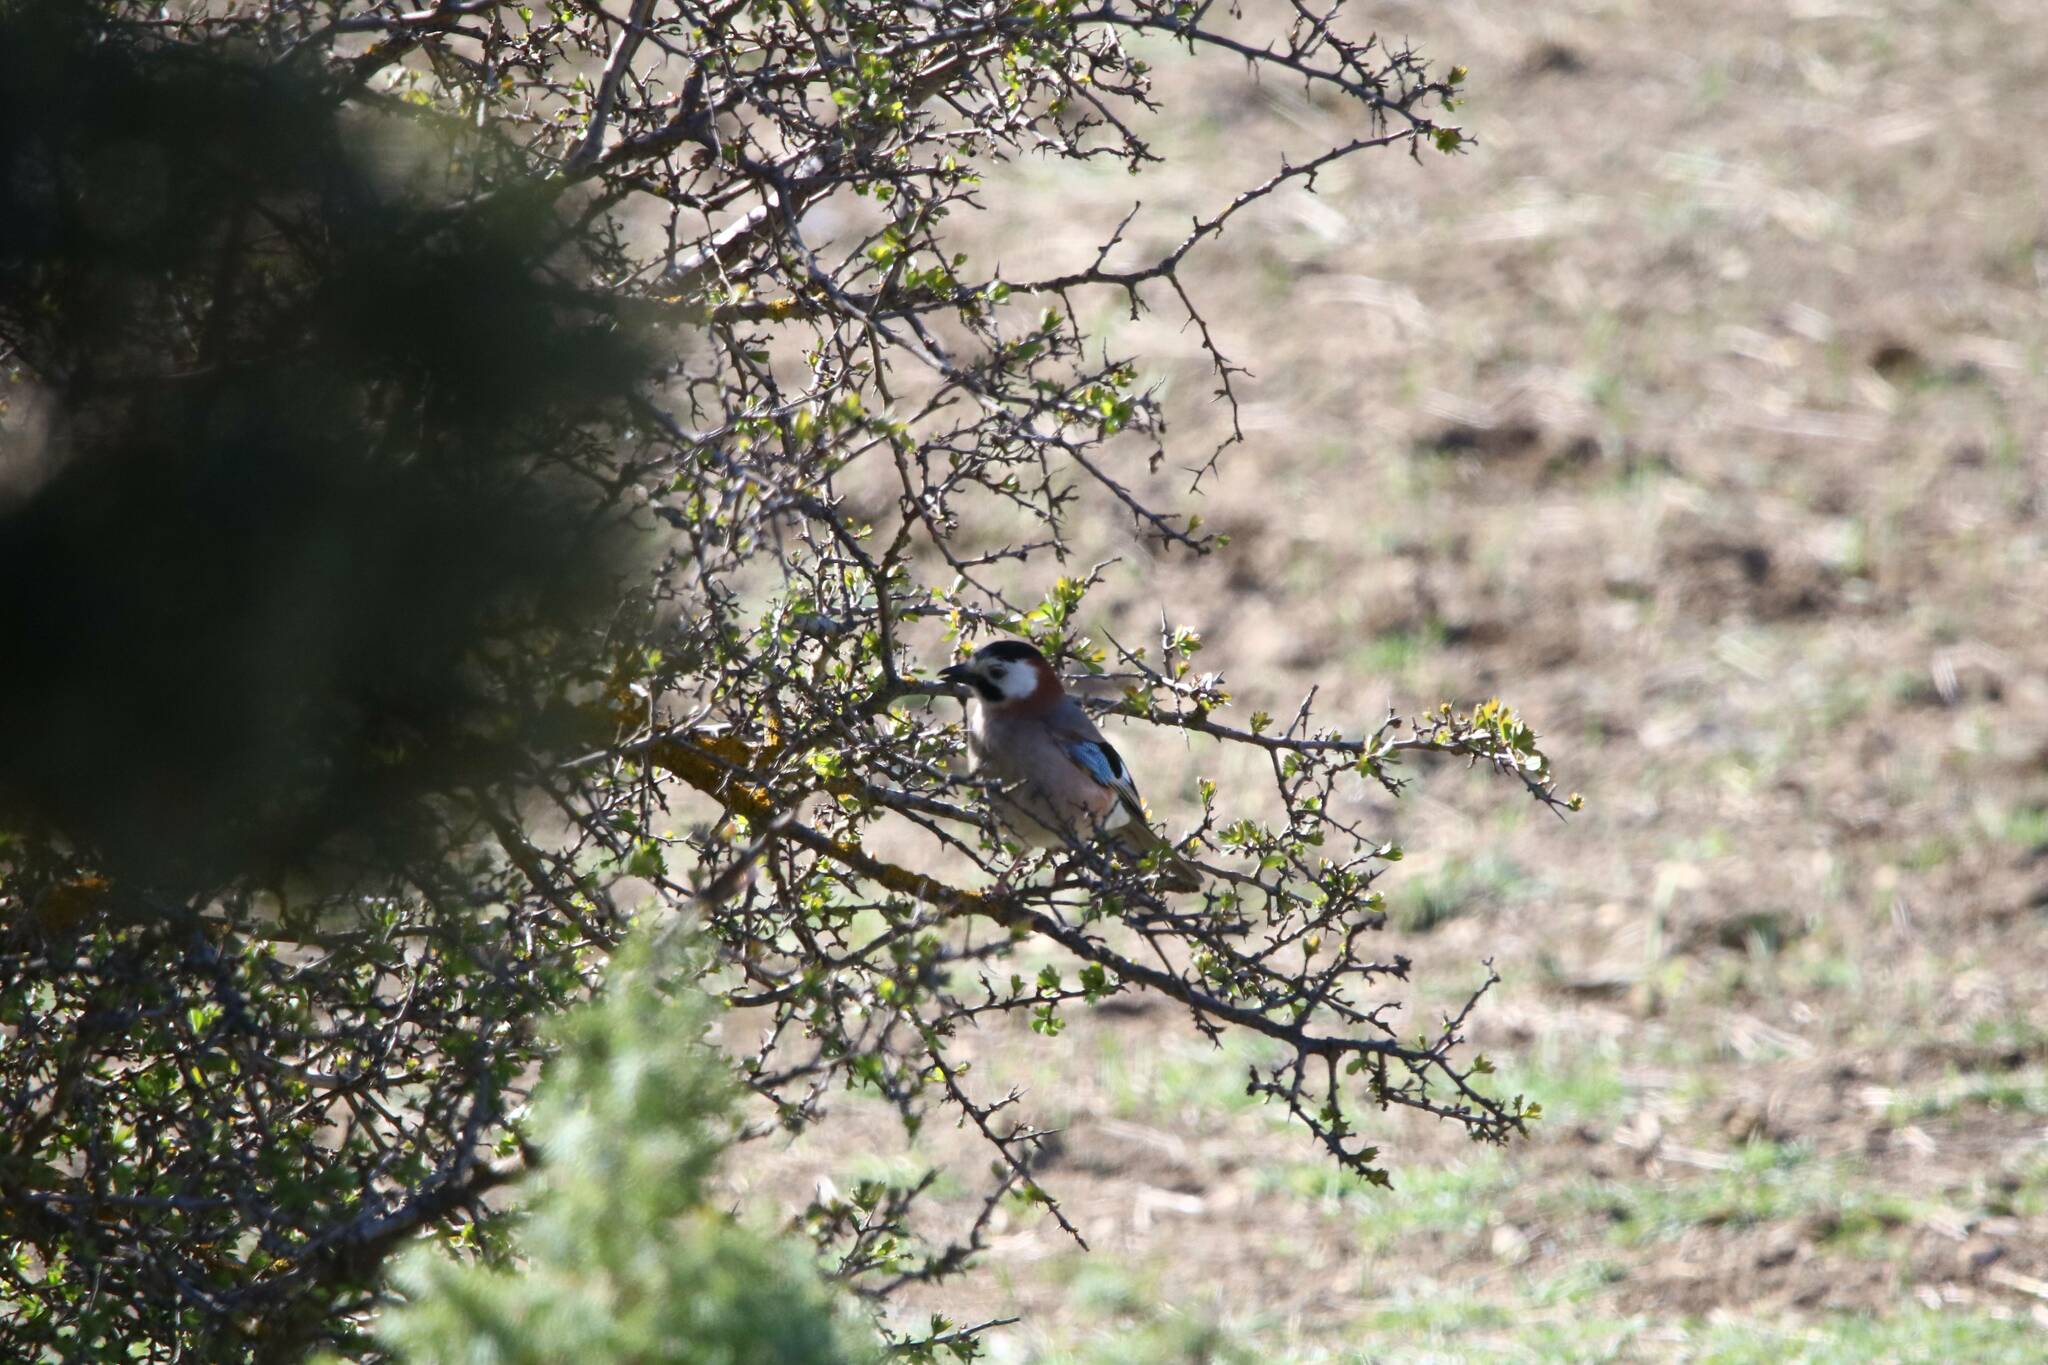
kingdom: Animalia
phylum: Chordata
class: Aves
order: Passeriformes
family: Corvidae
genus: Garrulus
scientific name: Garrulus glandarius
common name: Eurasian jay
